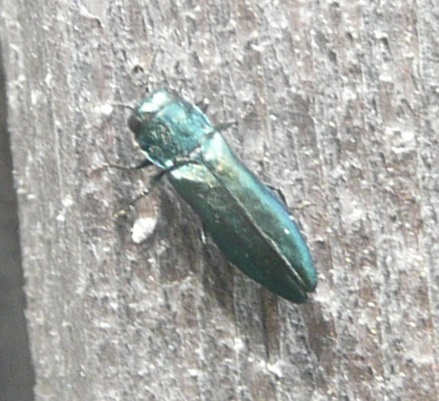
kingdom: Animalia
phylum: Arthropoda
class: Insecta
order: Coleoptera
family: Buprestidae
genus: Agrilus
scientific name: Agrilus cyanescens
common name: Bluish borer beetle
